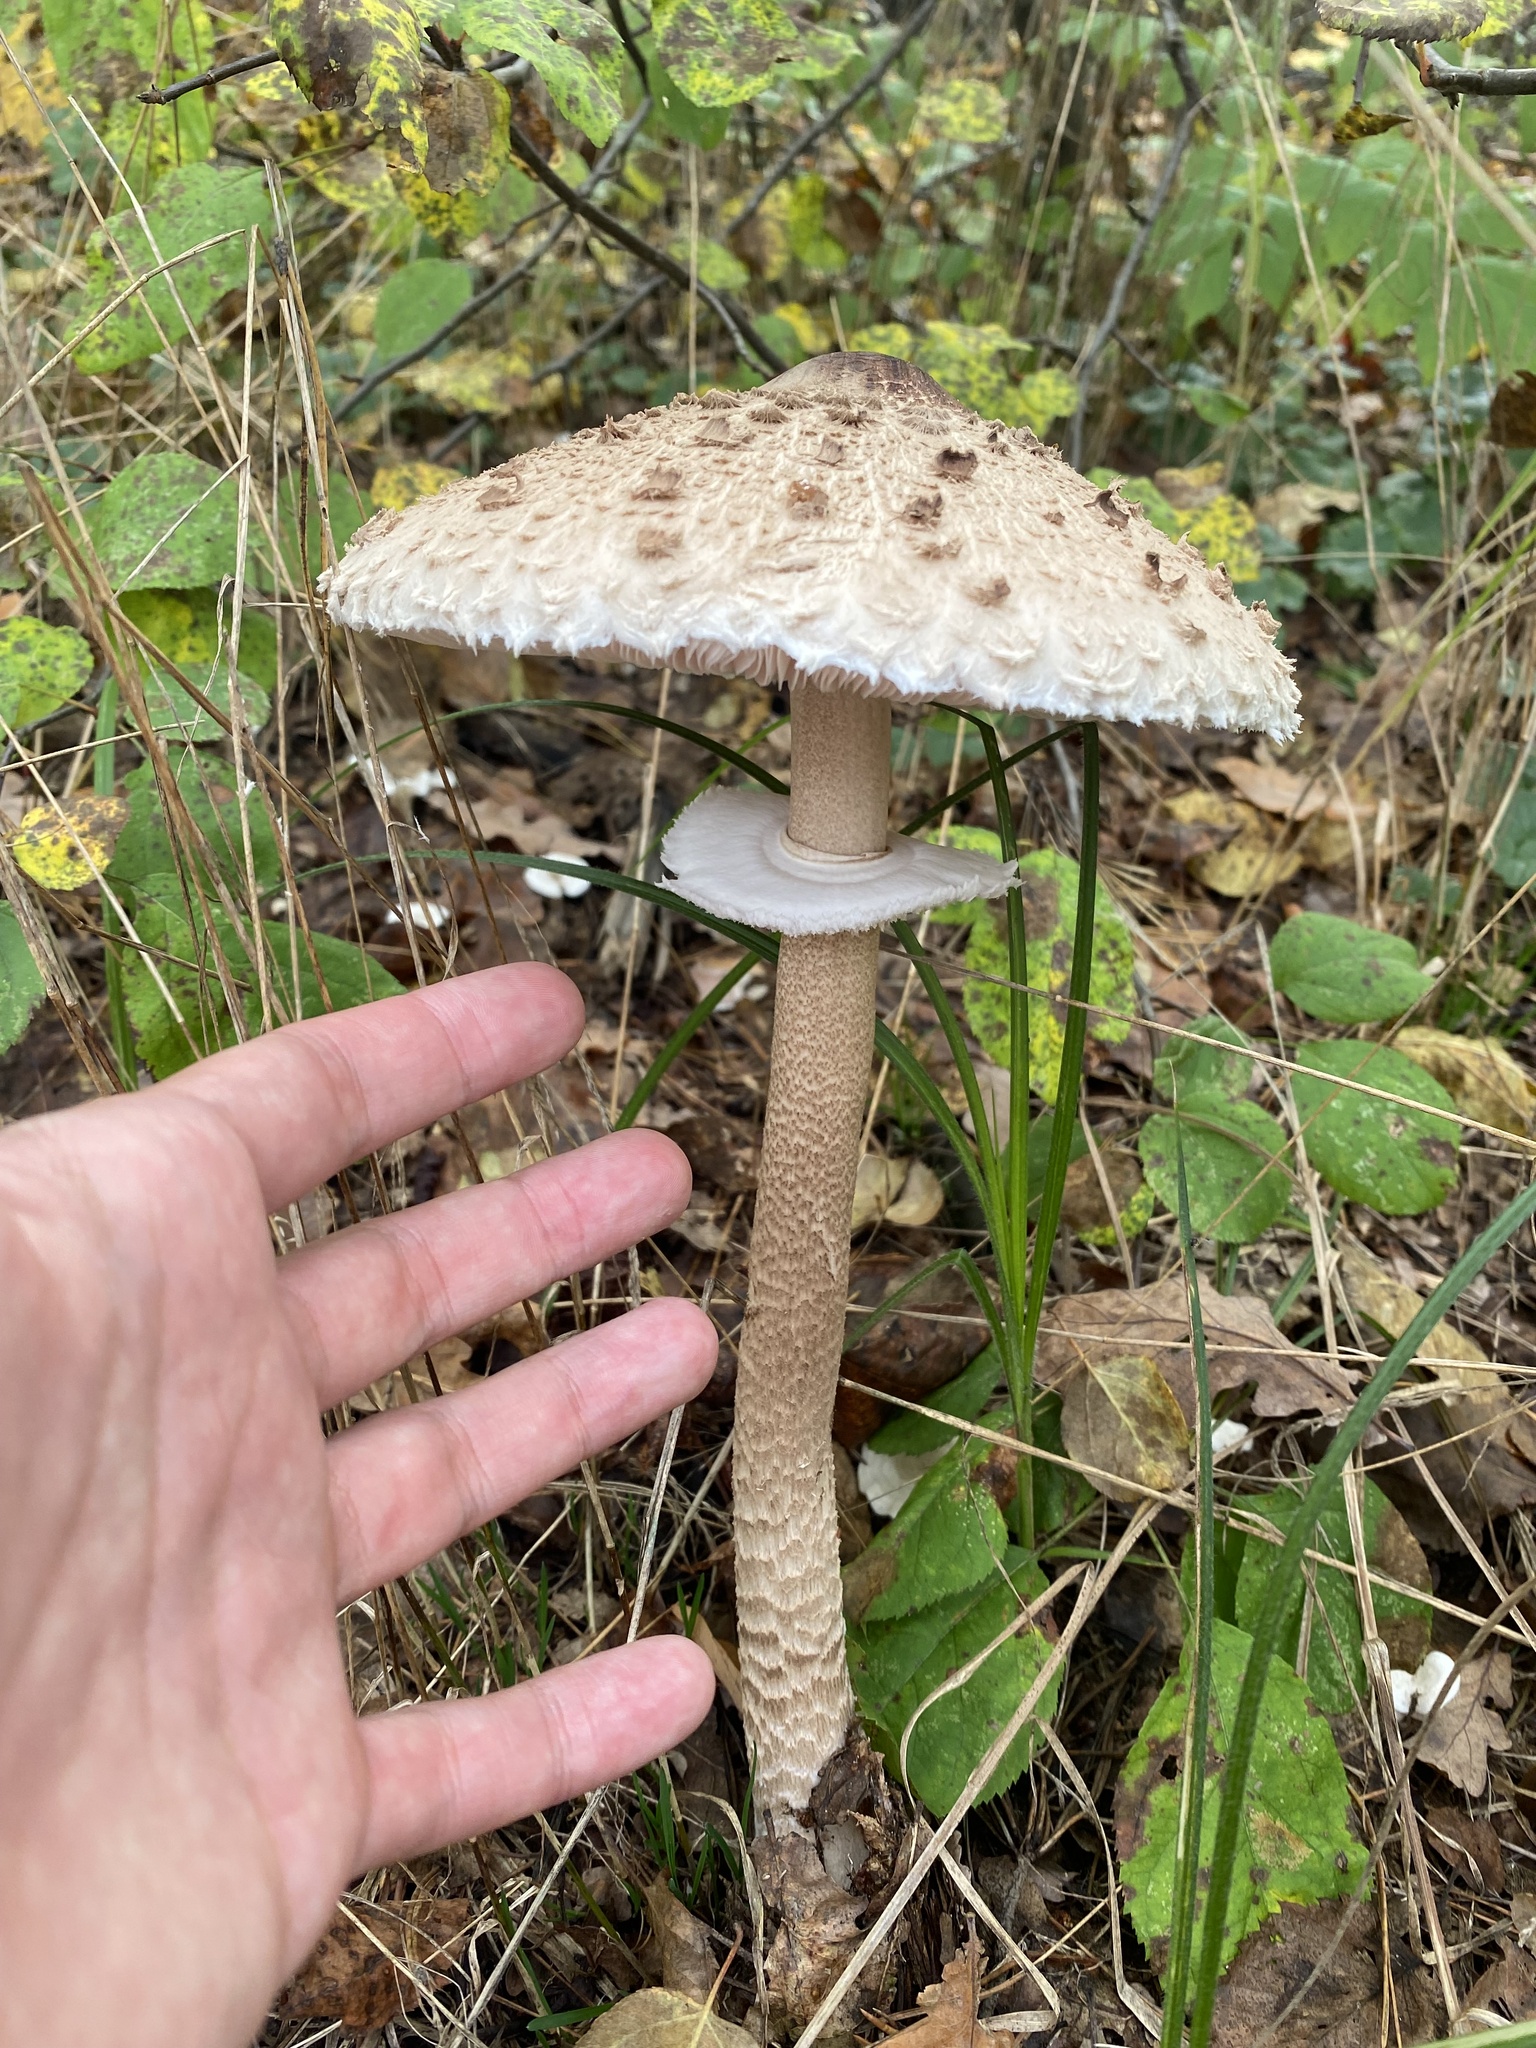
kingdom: Fungi
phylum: Basidiomycota
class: Agaricomycetes
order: Agaricales
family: Agaricaceae
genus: Macrolepiota
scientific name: Macrolepiota procera
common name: Parasol
